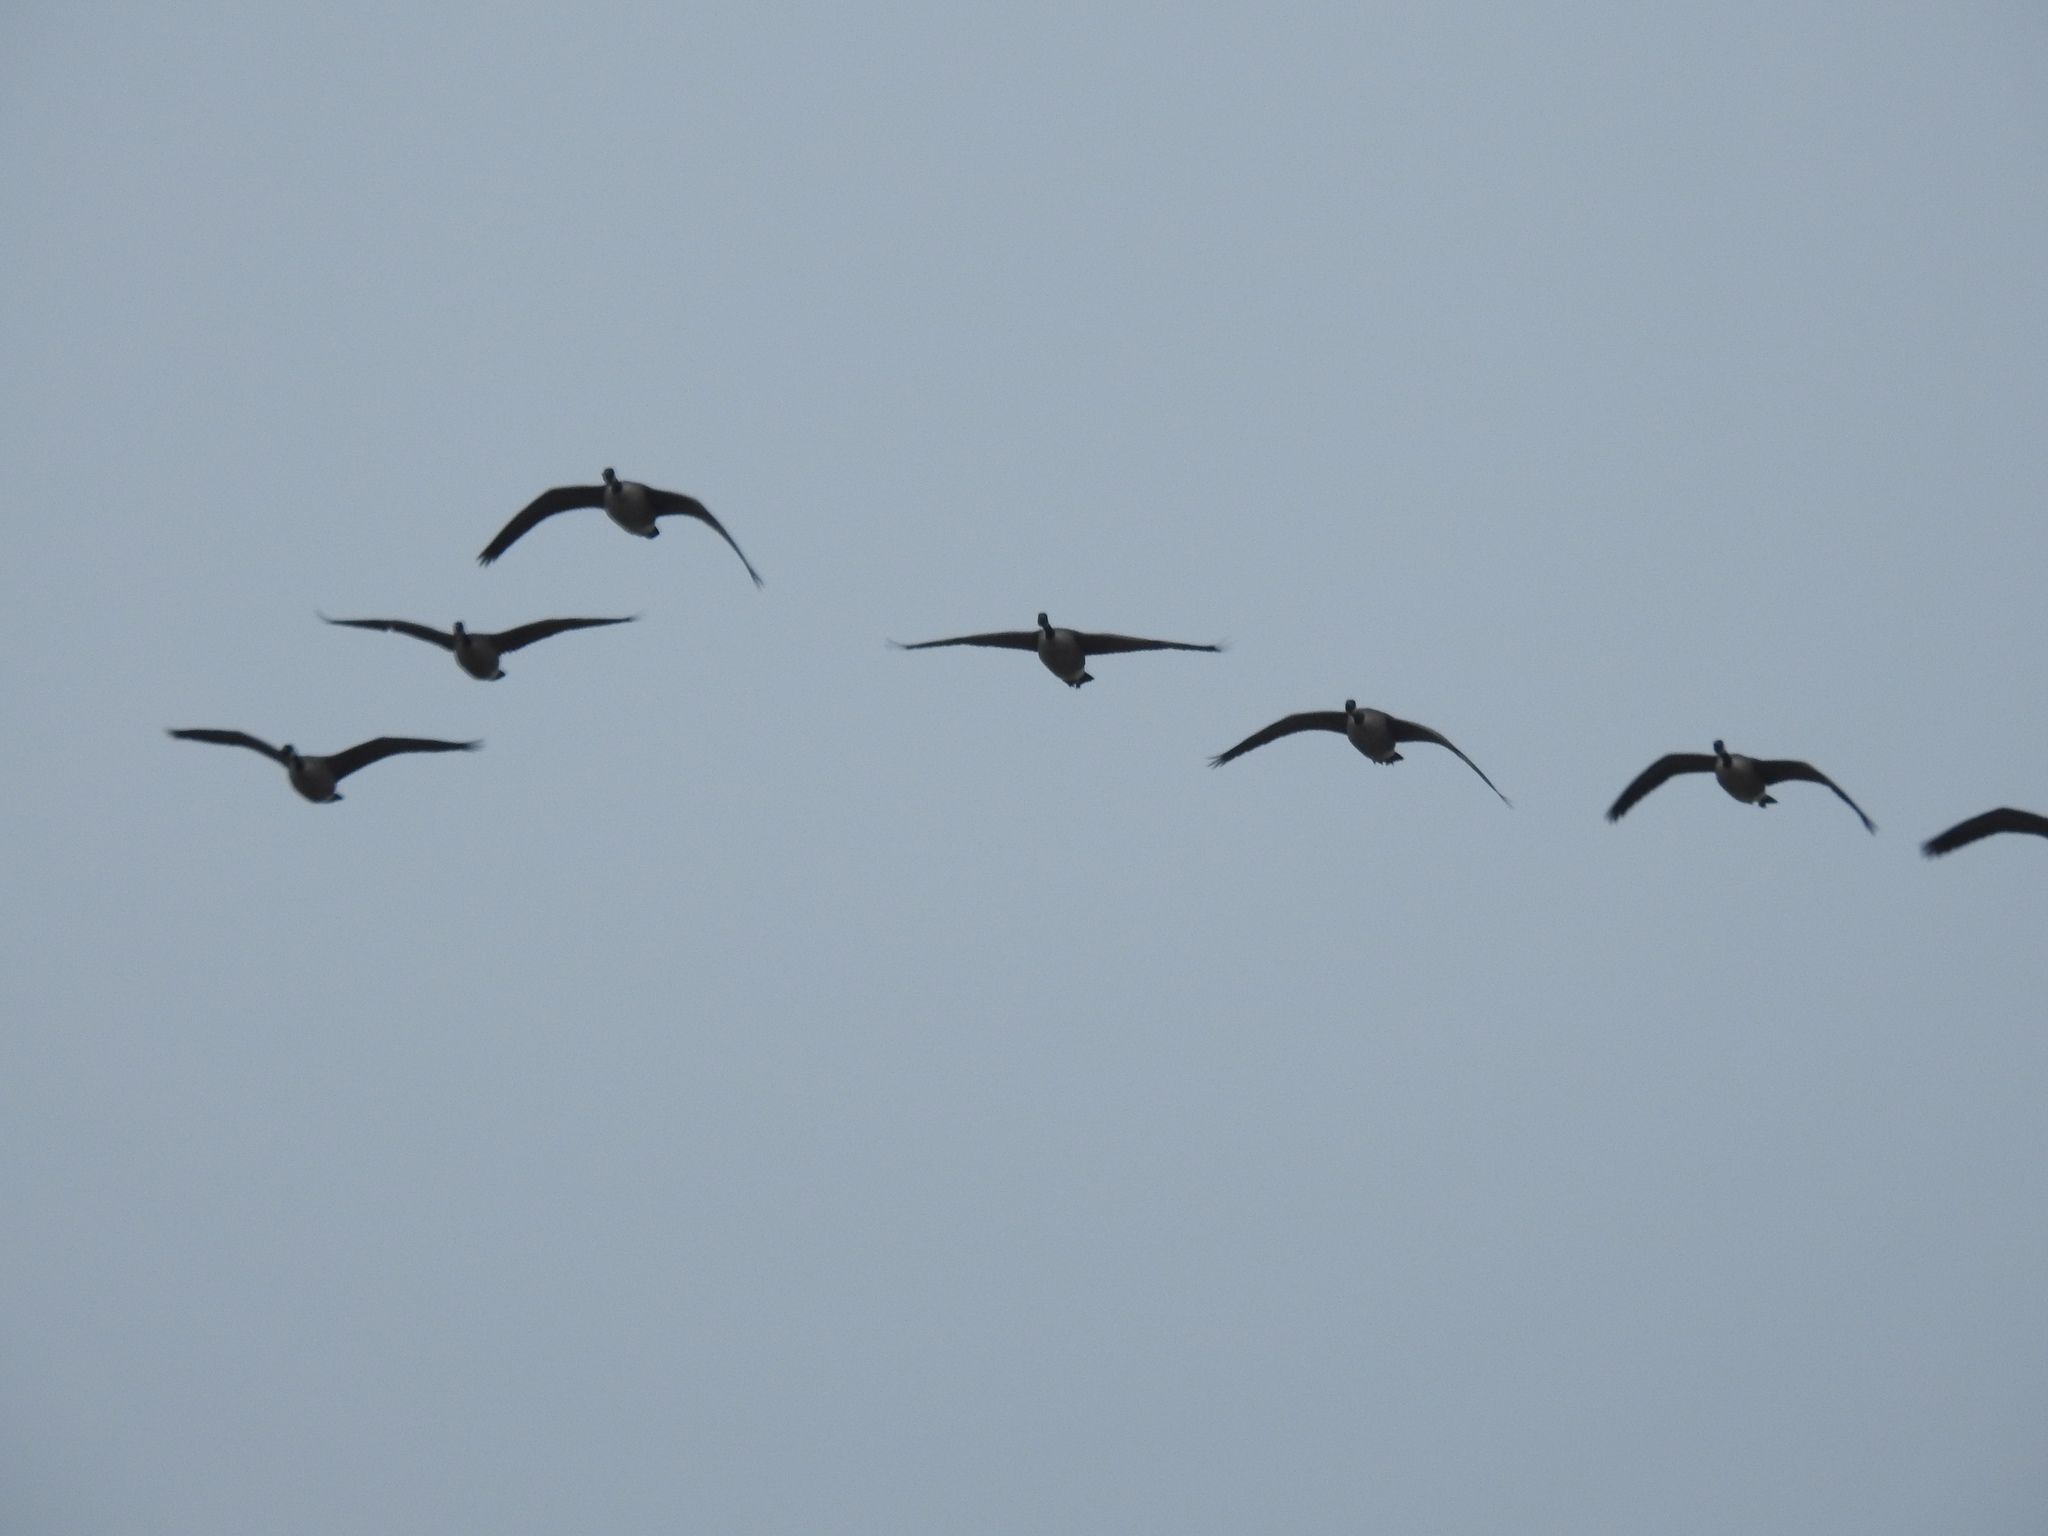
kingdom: Animalia
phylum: Chordata
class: Aves
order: Anseriformes
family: Anatidae
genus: Branta
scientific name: Branta canadensis
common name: Canada goose
